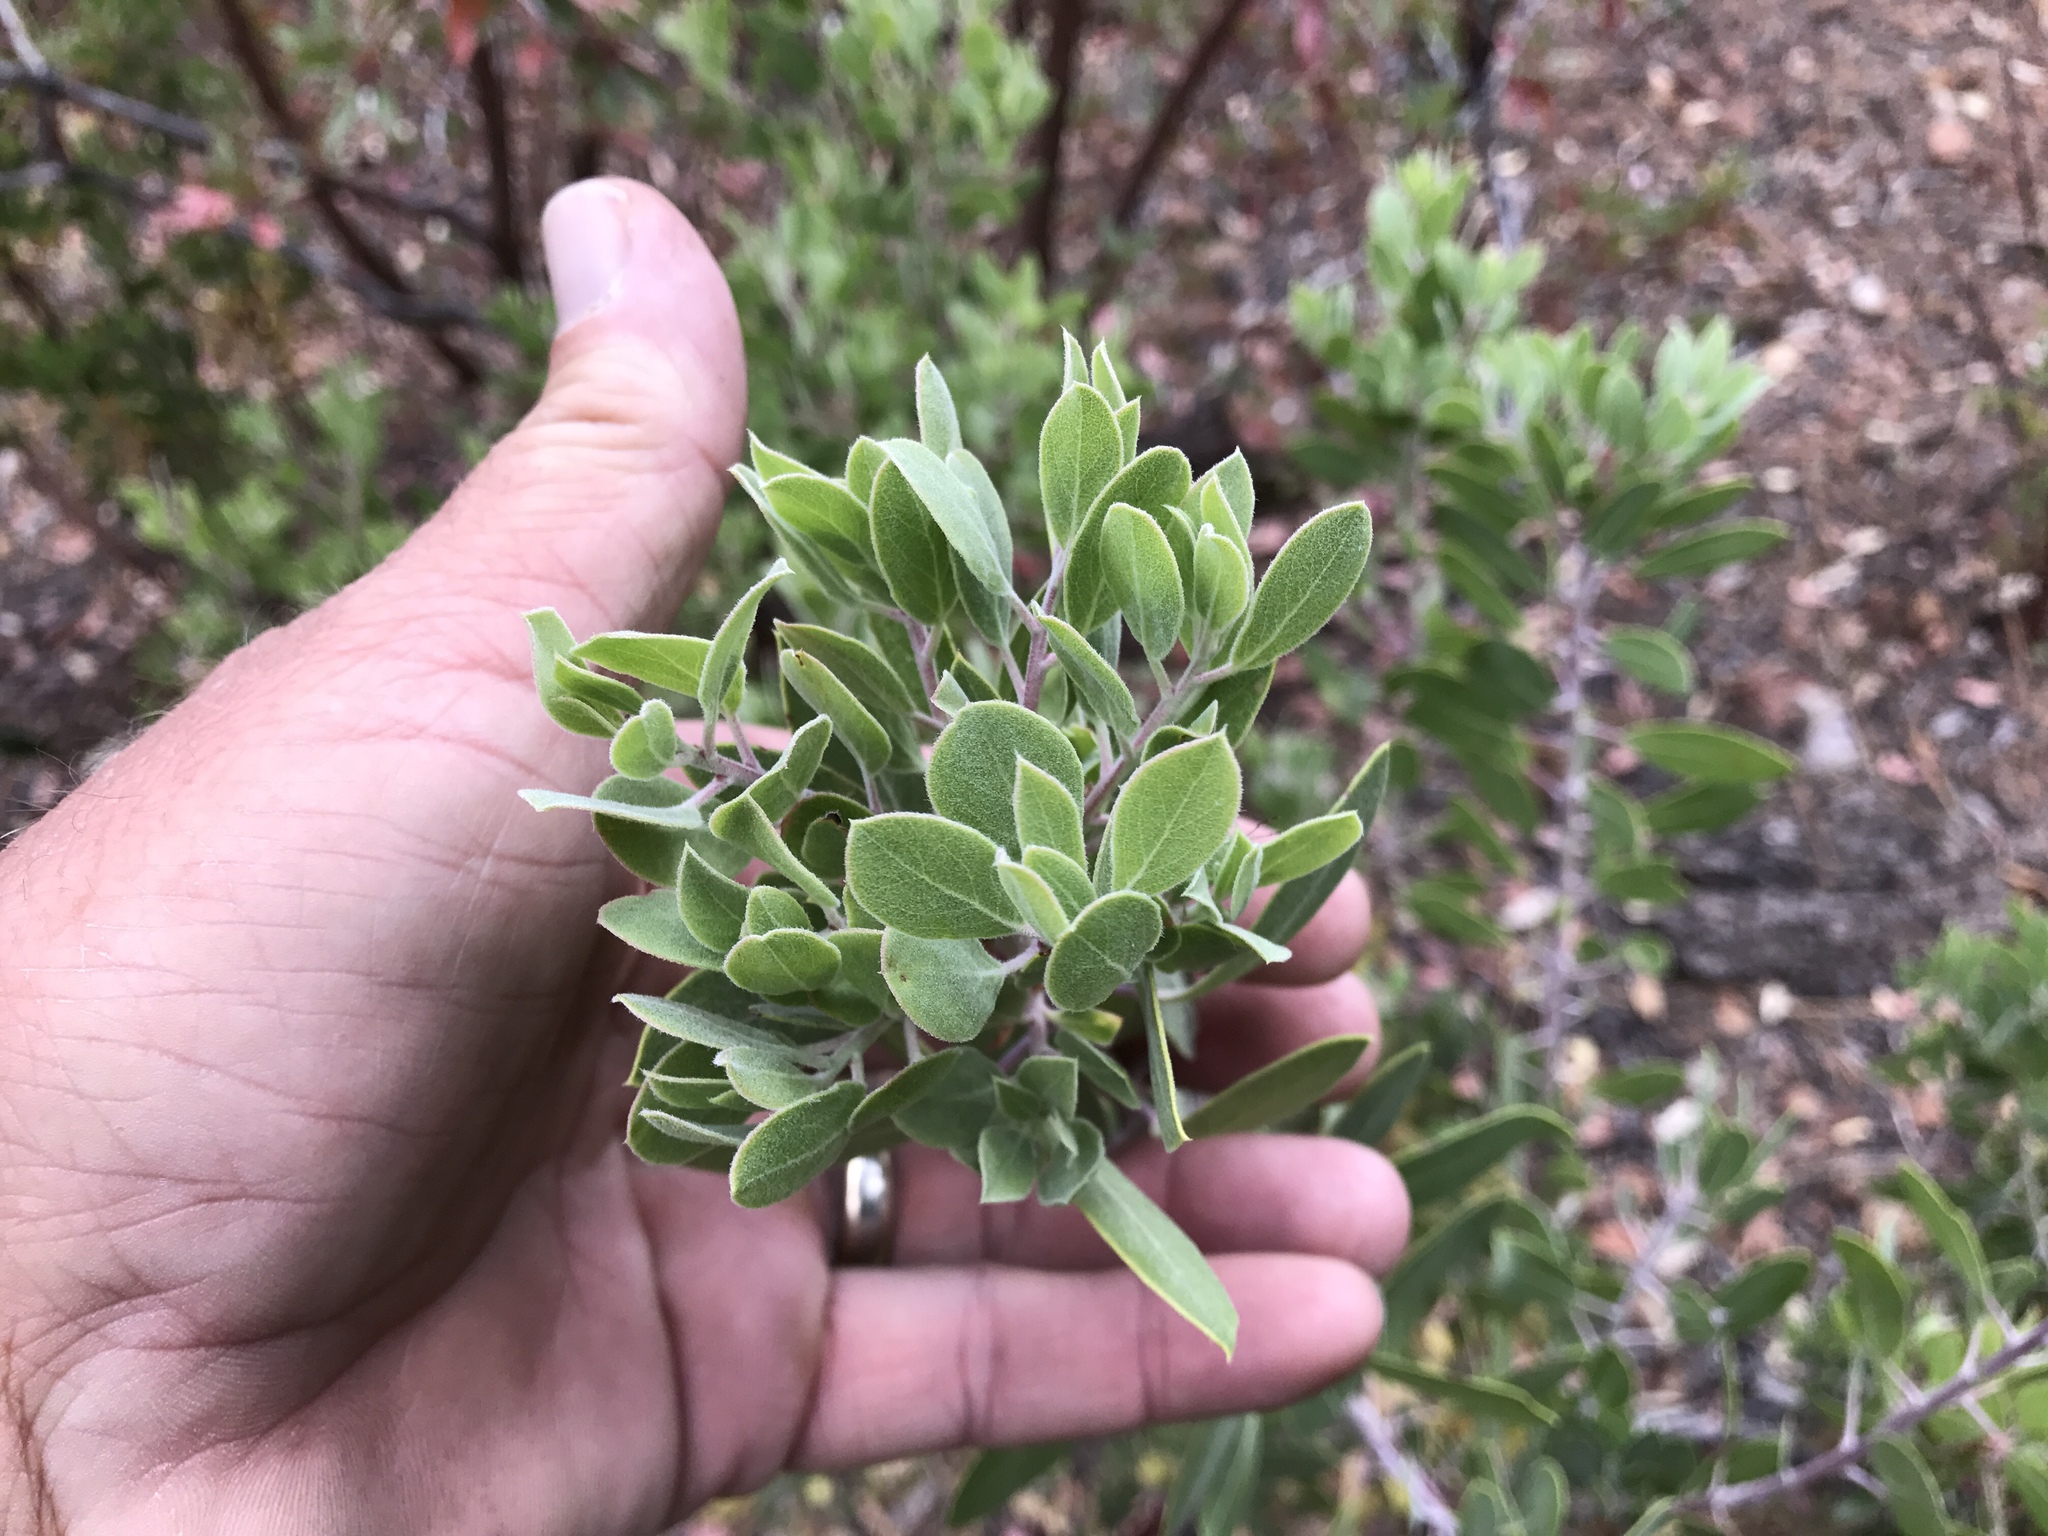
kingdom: Plantae
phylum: Tracheophyta
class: Magnoliopsida
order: Ericales
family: Ericaceae
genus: Arctostaphylos
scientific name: Arctostaphylos pungens
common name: Mexican manzanita
